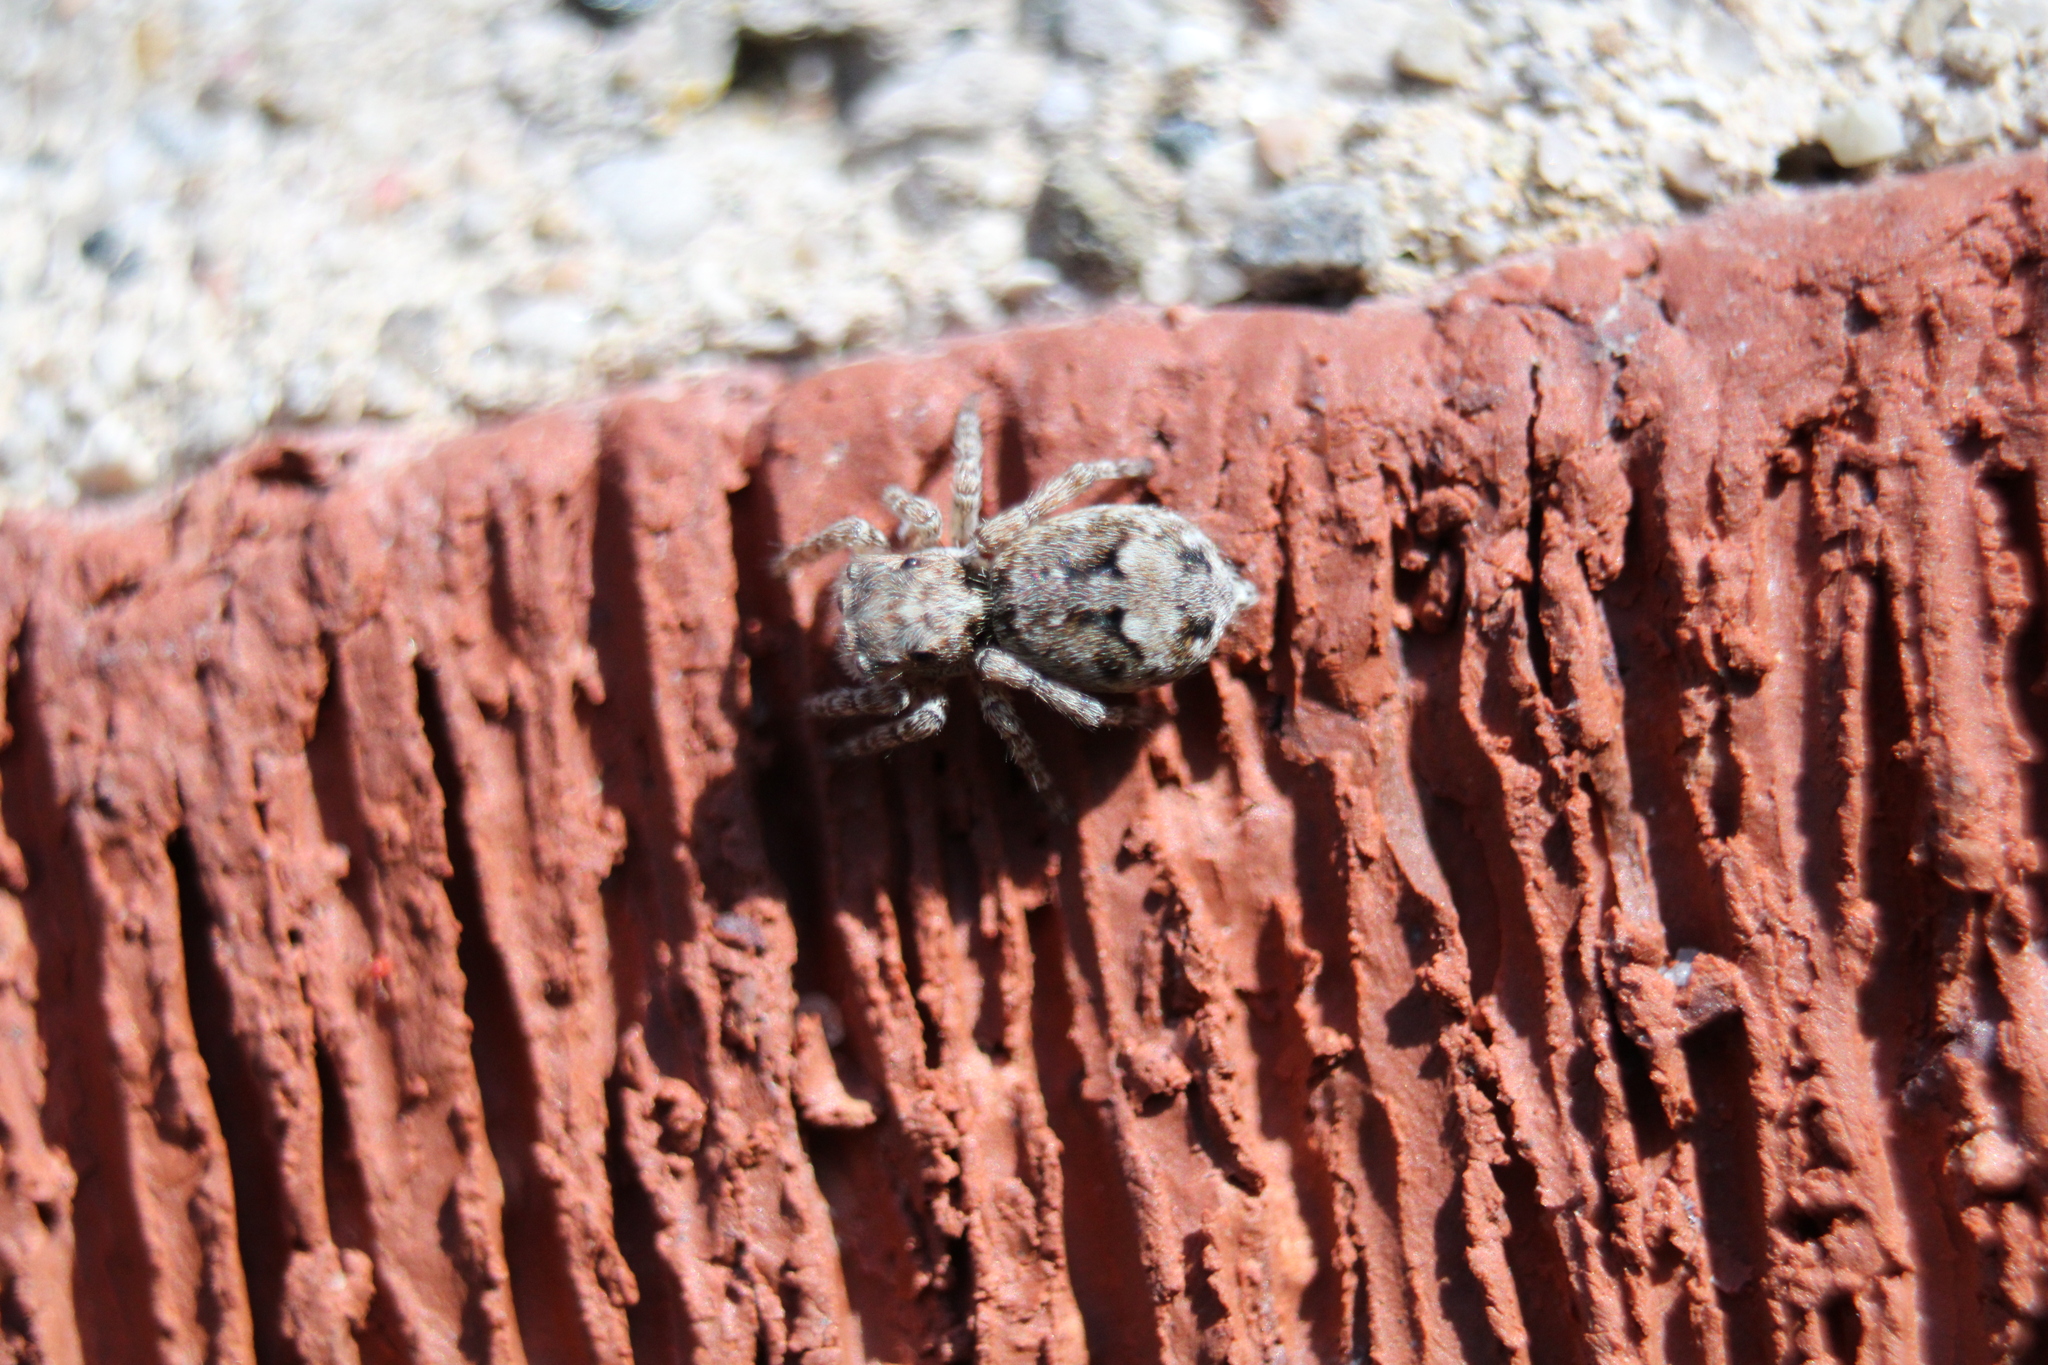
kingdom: Animalia
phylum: Arthropoda
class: Arachnida
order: Araneae
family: Salticidae
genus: Attulus
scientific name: Attulus fasciger
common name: Asiatic wall jumping spider
